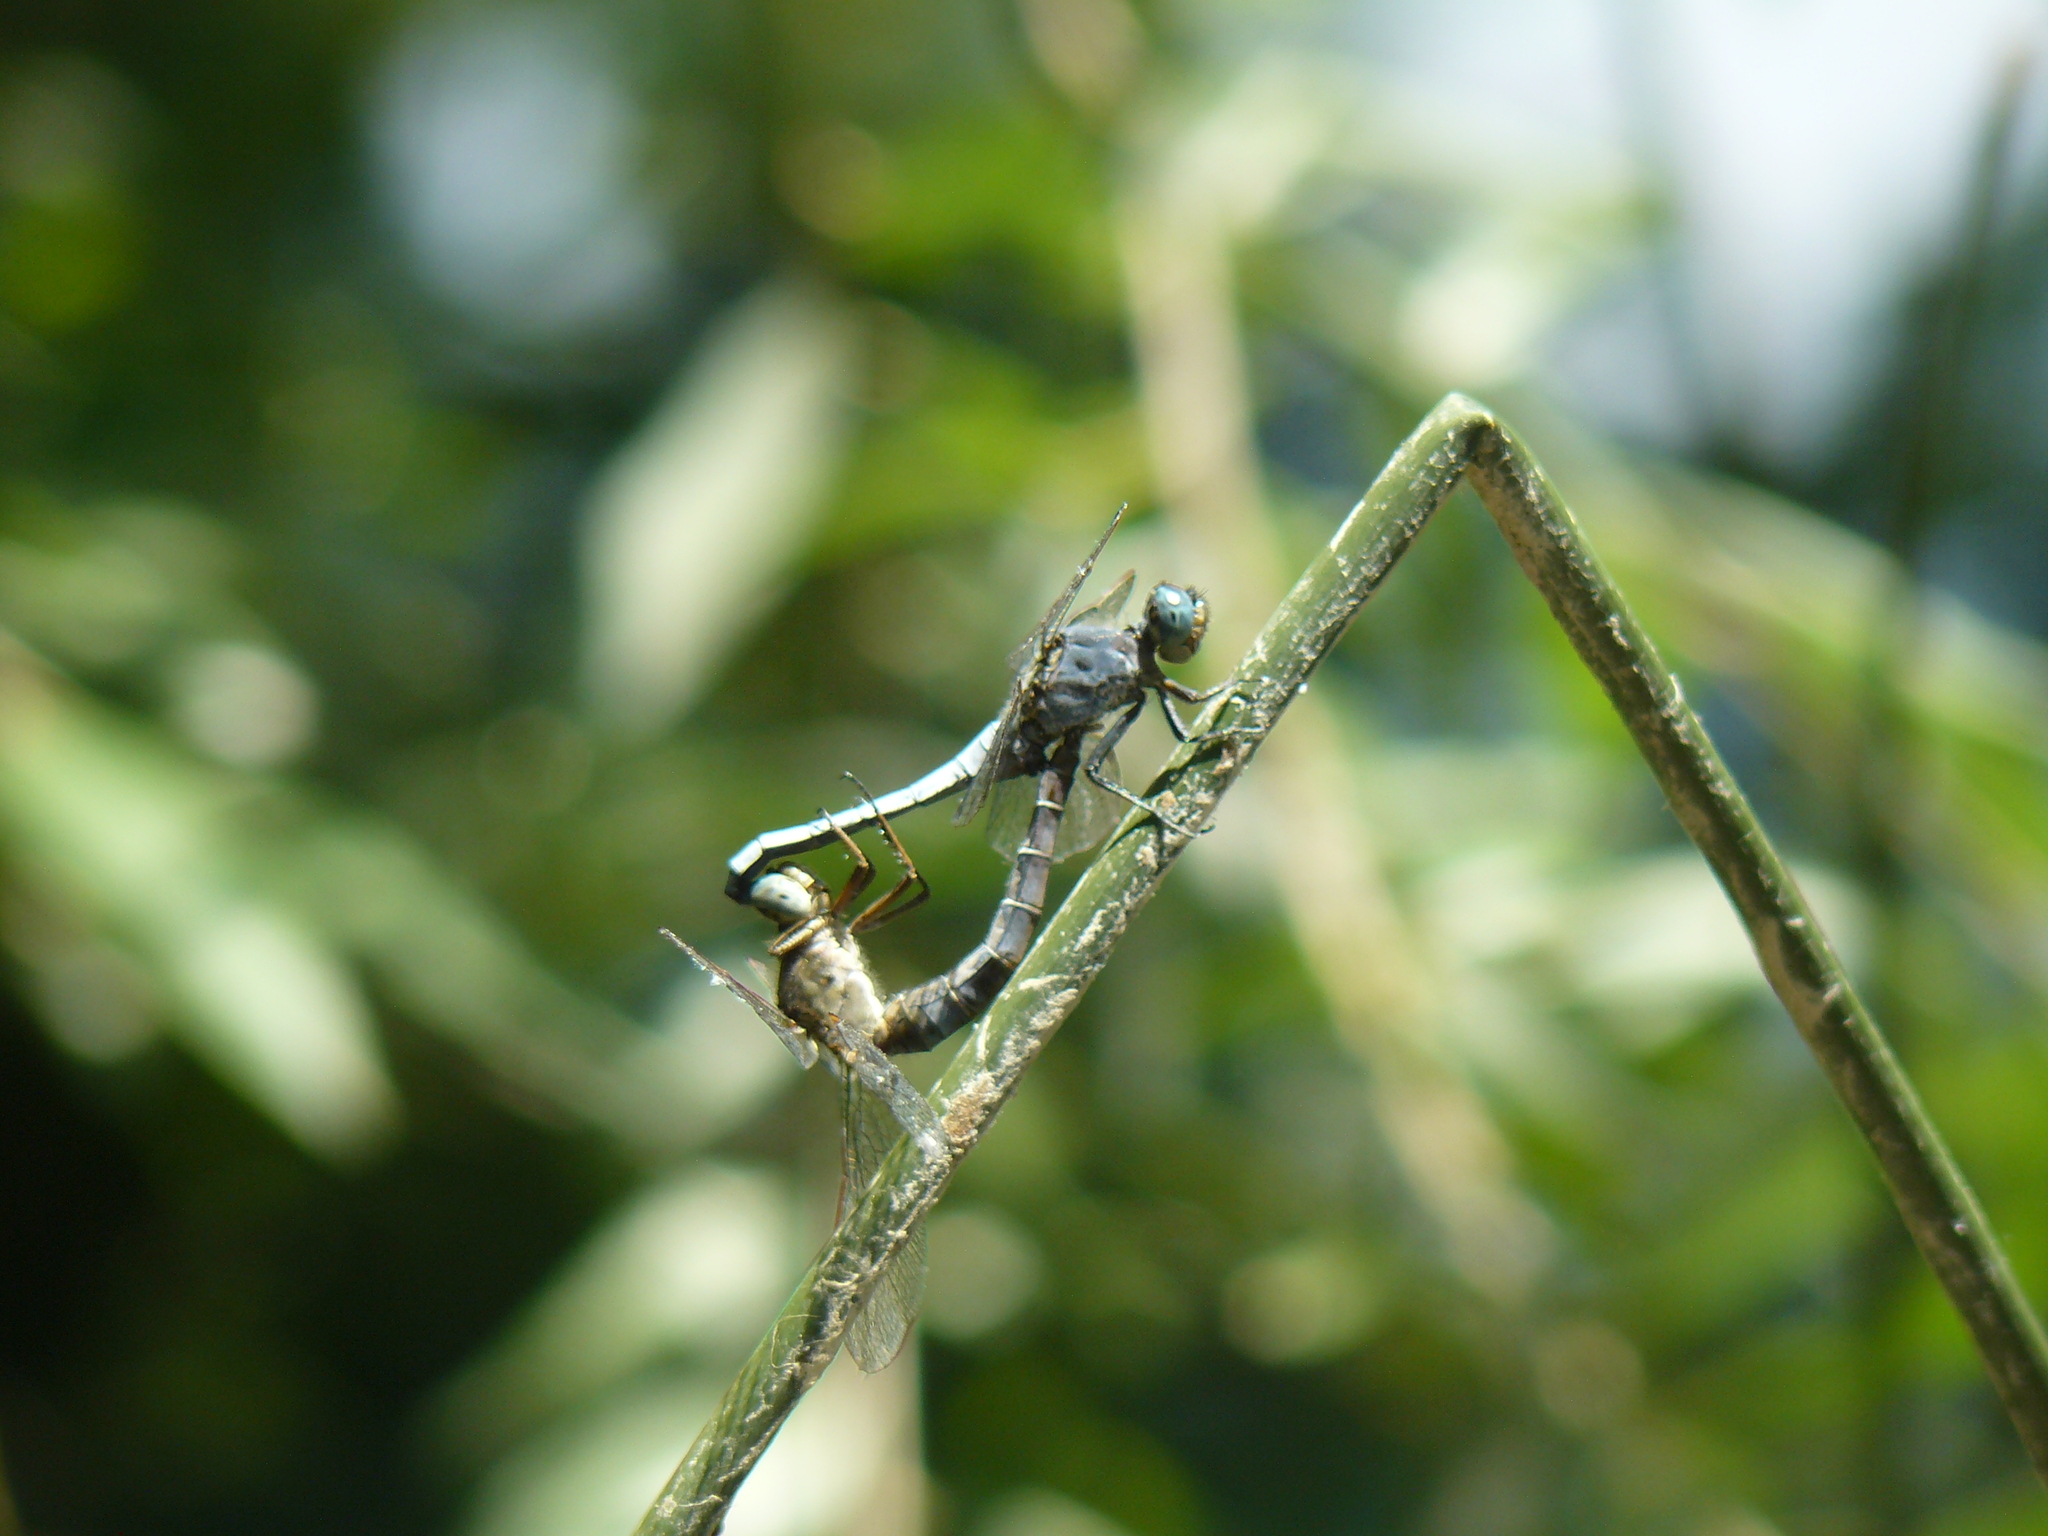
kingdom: Animalia
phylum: Arthropoda
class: Insecta
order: Odonata
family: Libellulidae
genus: Orthetrum
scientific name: Orthetrum coerulescens
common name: Keeled skimmer
